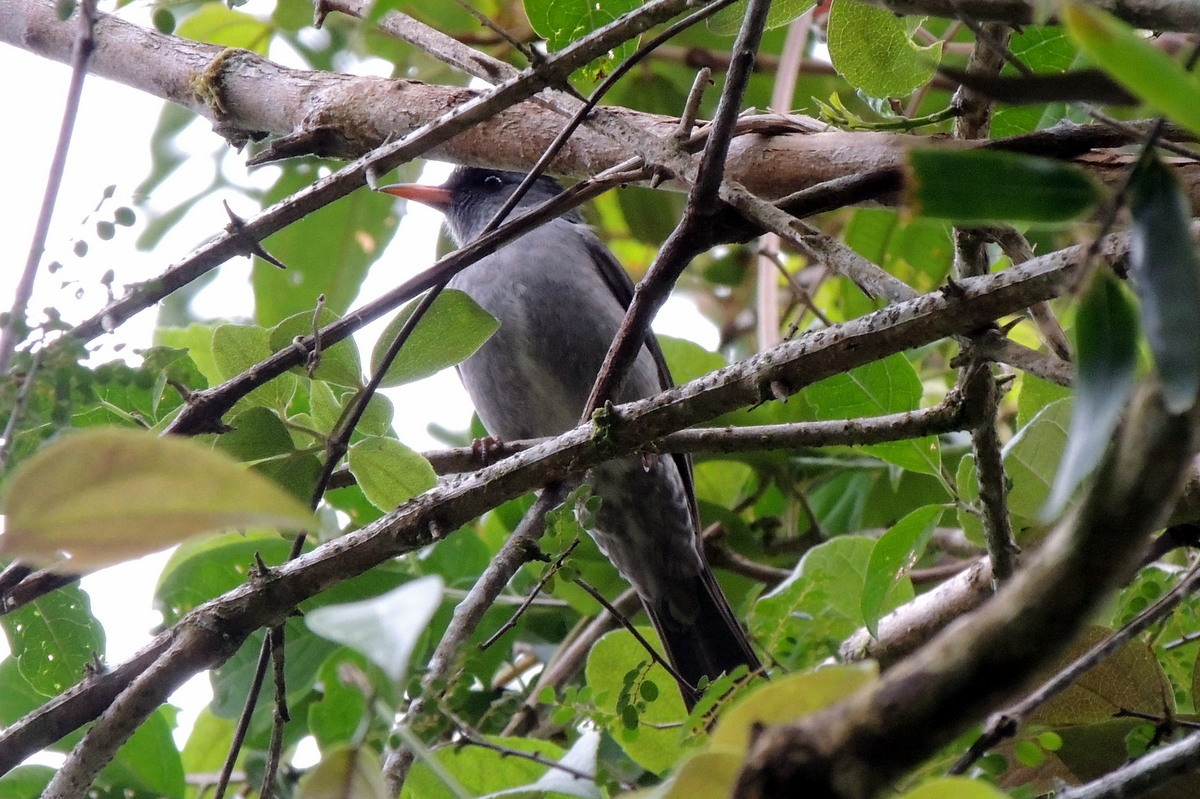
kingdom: Animalia
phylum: Chordata
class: Aves
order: Passeriformes
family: Pycnonotidae
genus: Hypsipetes
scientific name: Hypsipetes madagascariensis
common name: Malagasy bulbul
